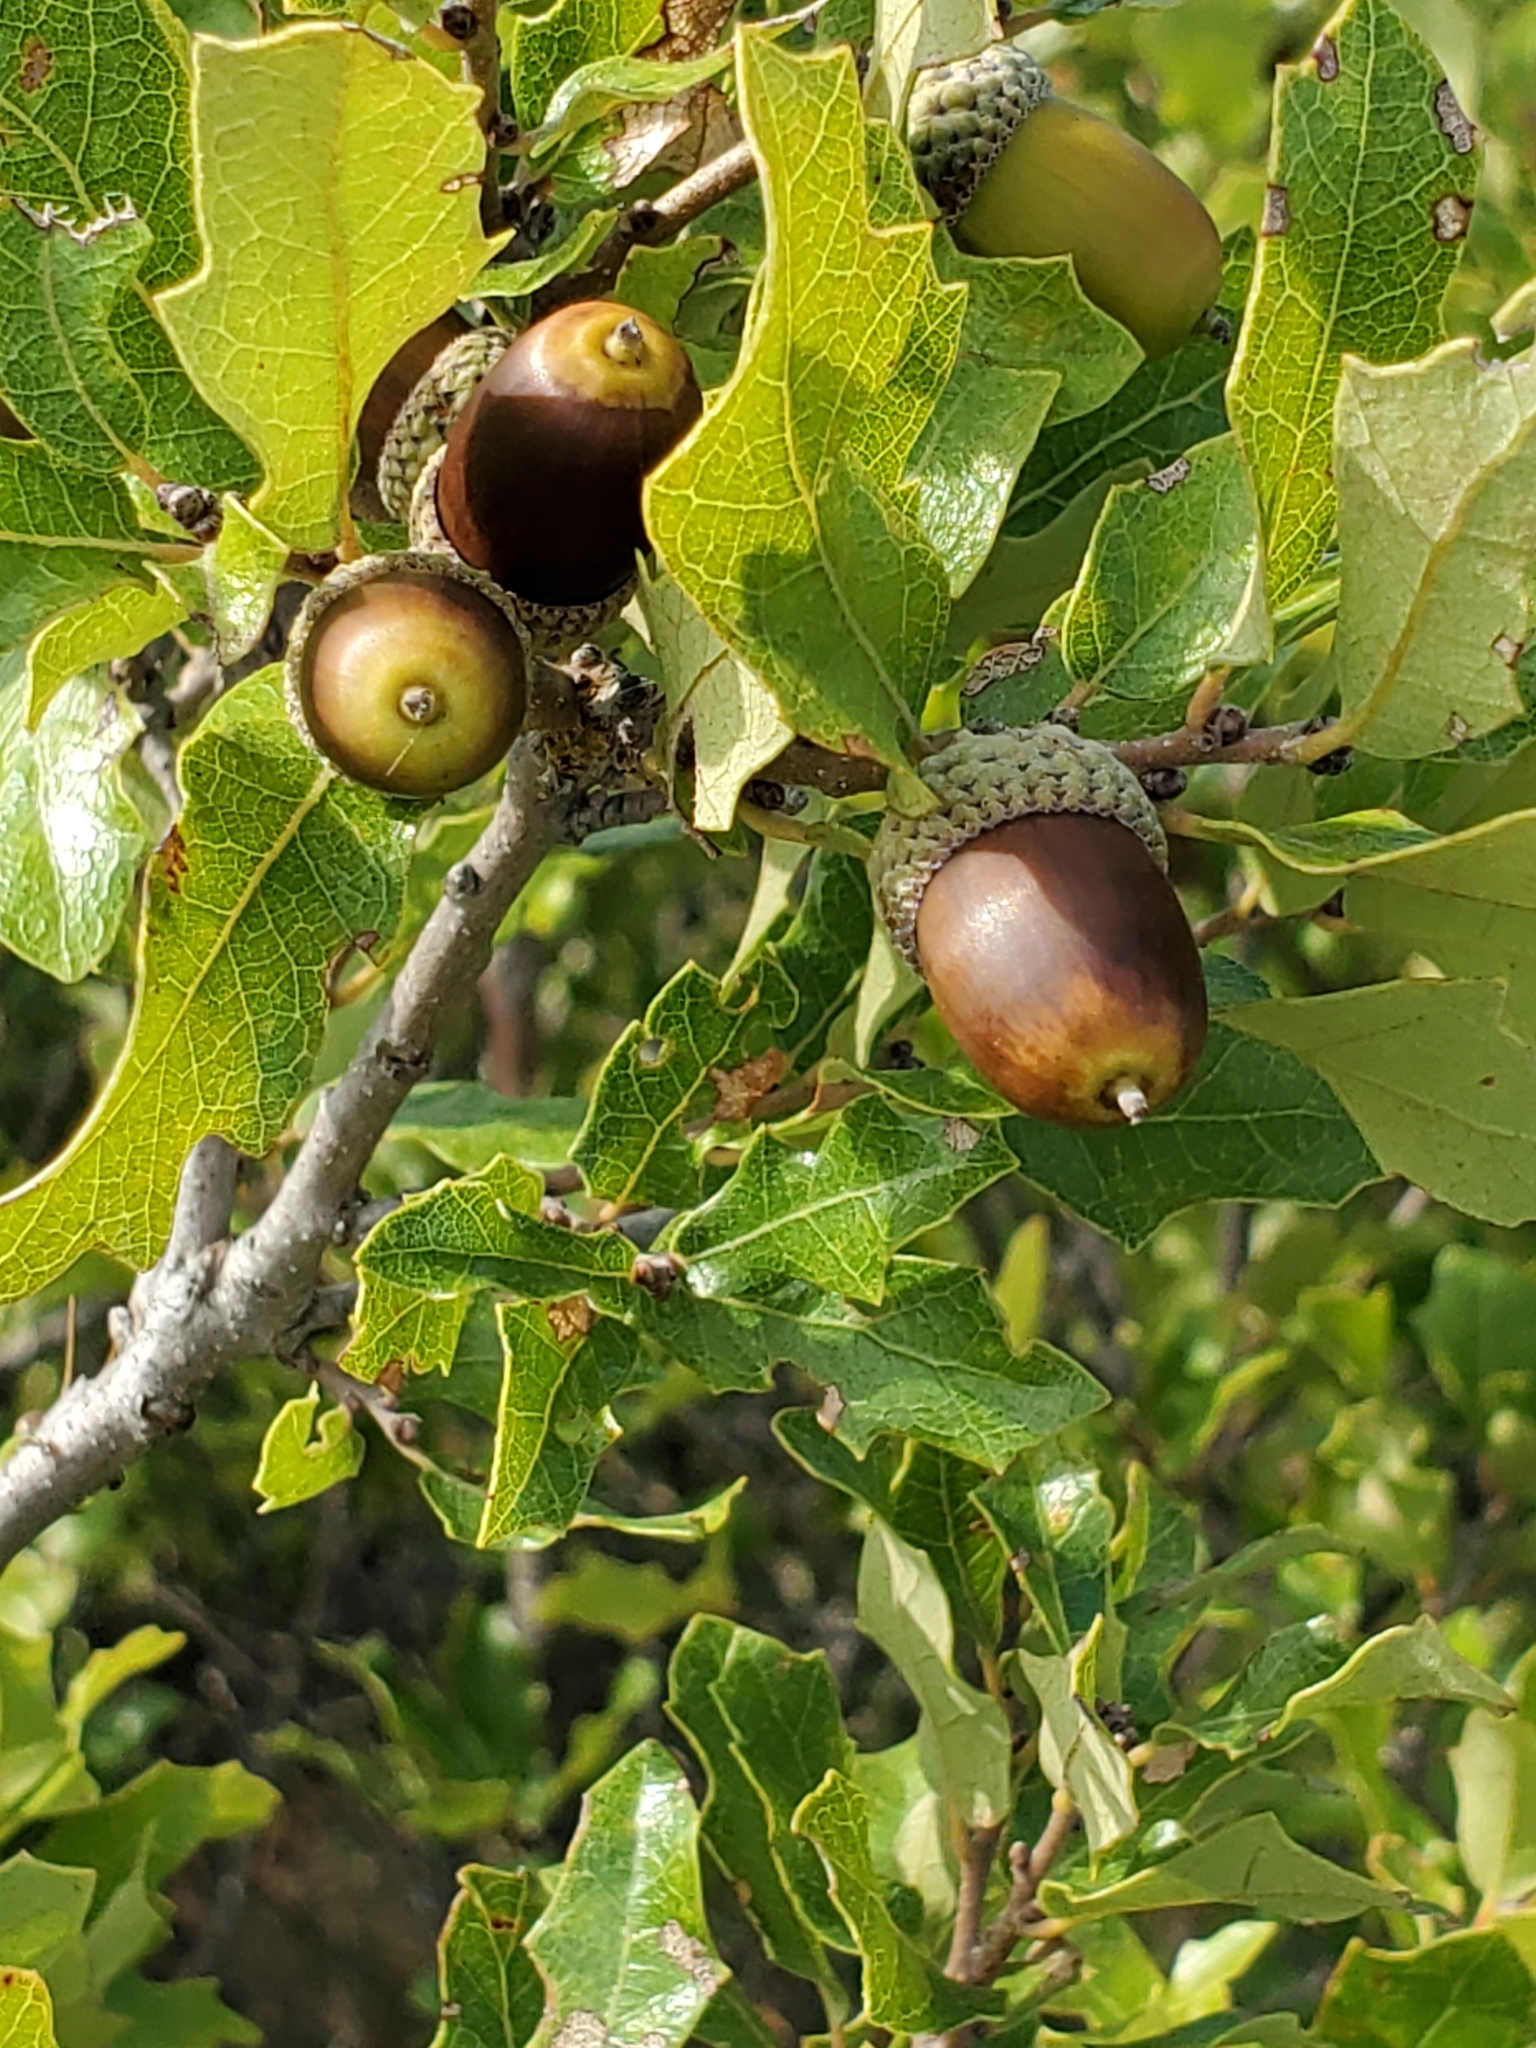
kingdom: Plantae
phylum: Tracheophyta
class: Magnoliopsida
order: Fagales
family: Fagaceae
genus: Quercus
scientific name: Quercus sinuata
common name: Durand oak
